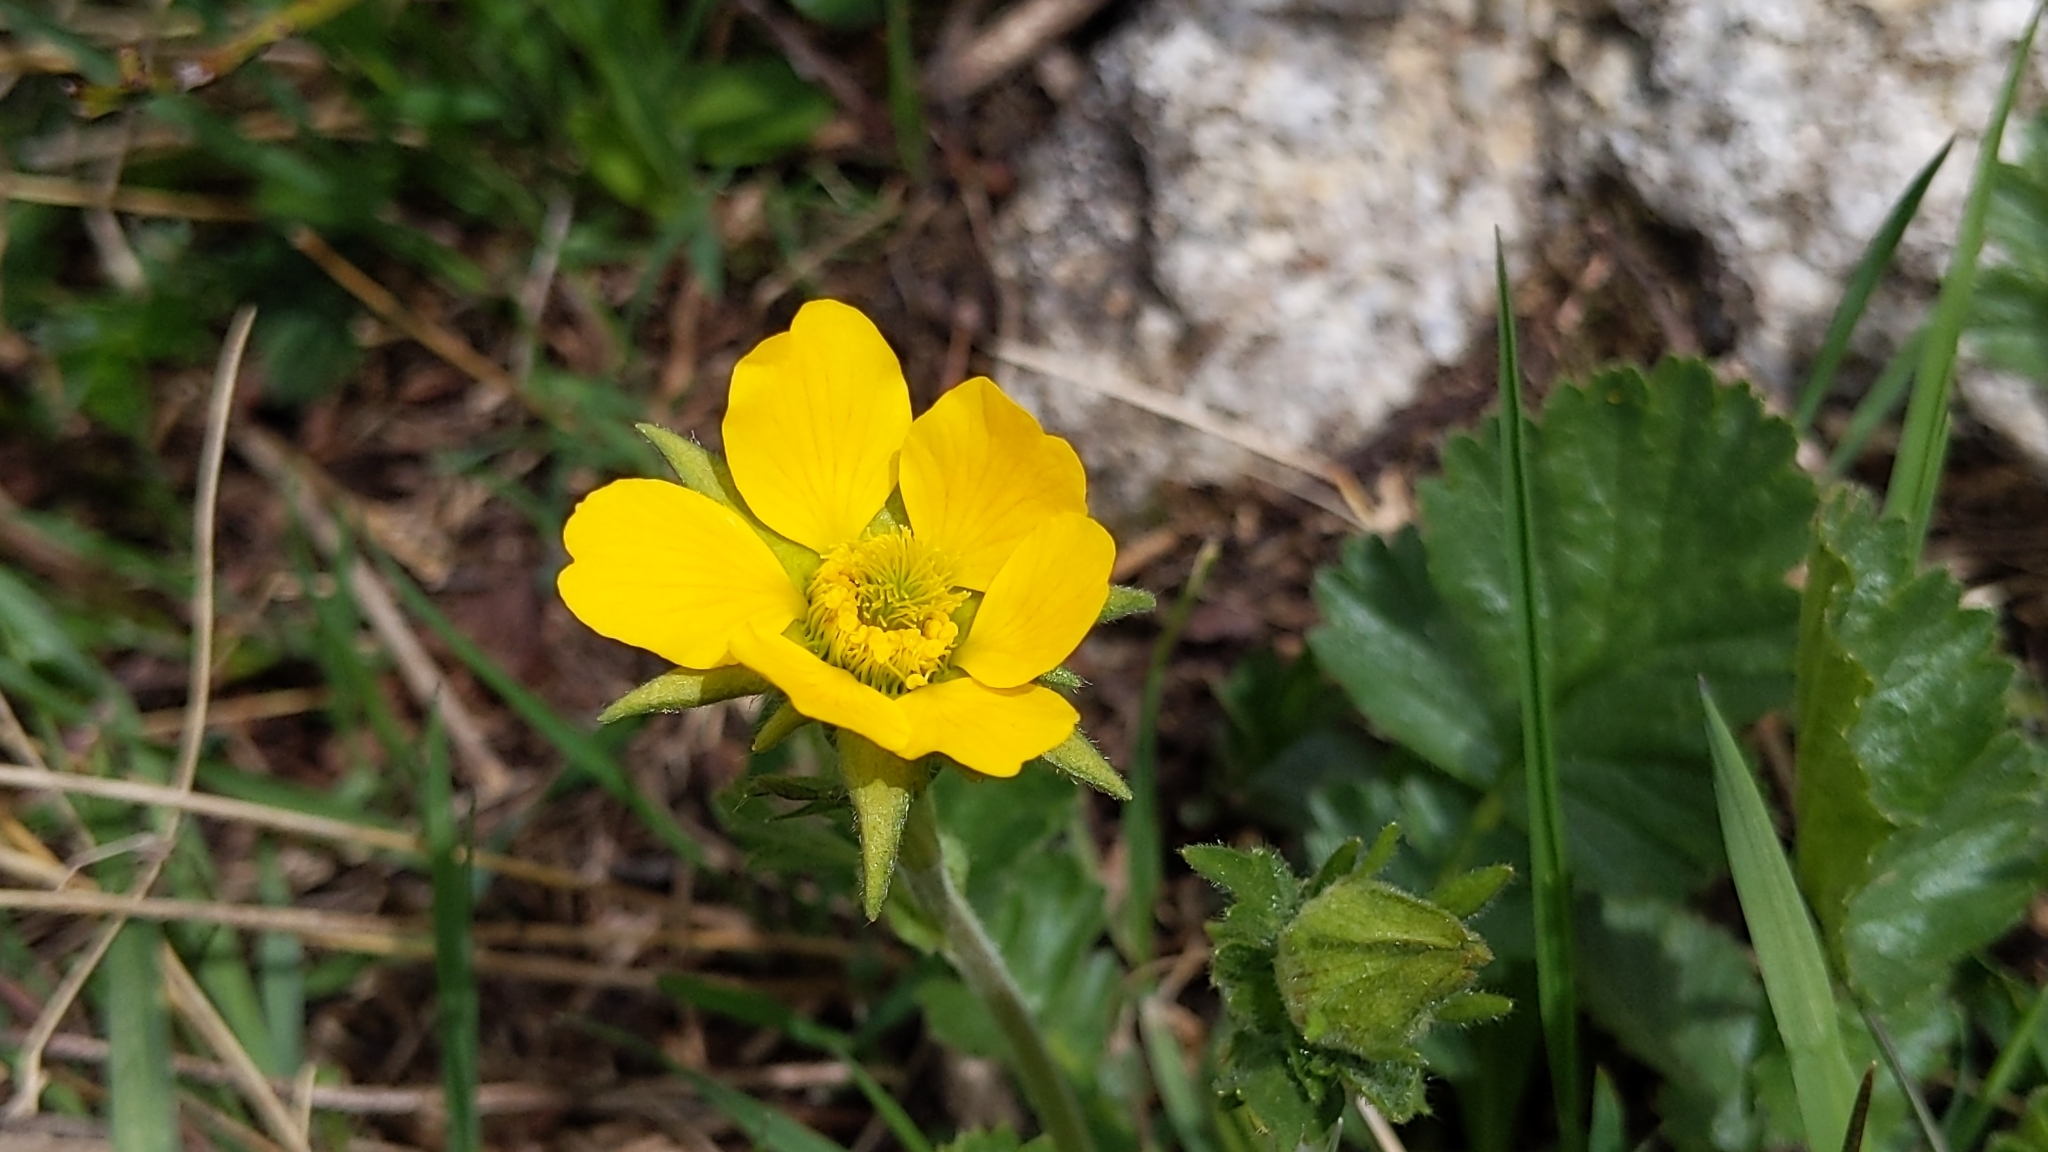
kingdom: Plantae
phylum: Tracheophyta
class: Magnoliopsida
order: Rosales
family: Rosaceae
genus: Geum
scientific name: Geum montanum
